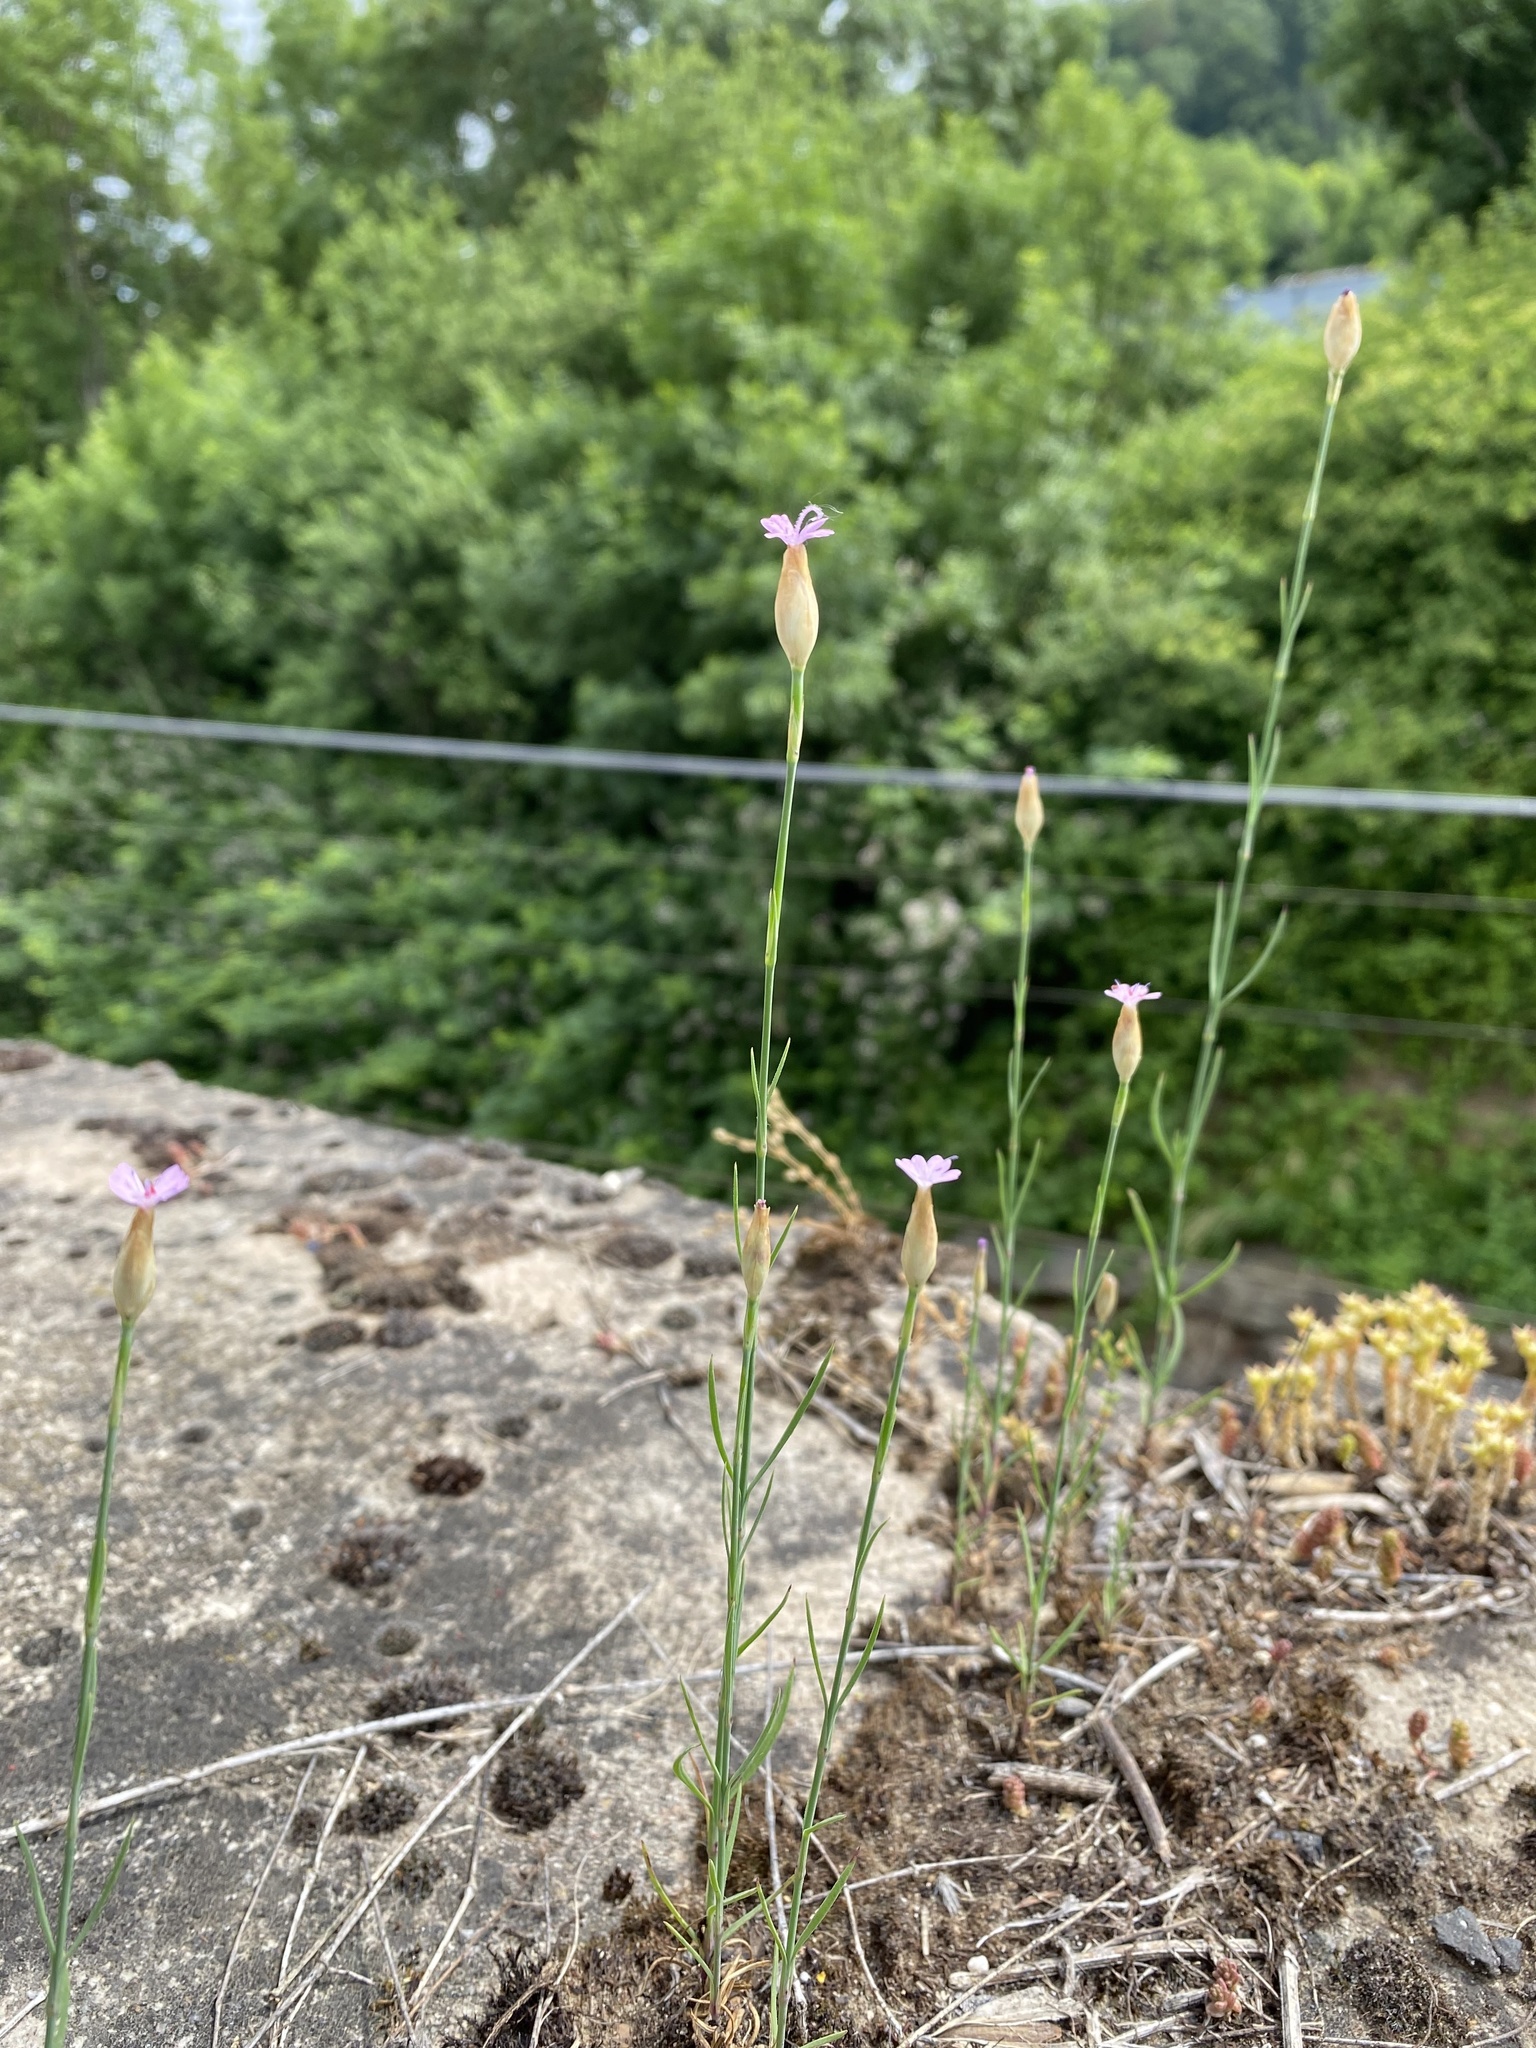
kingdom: Plantae
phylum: Tracheophyta
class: Magnoliopsida
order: Caryophyllales
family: Caryophyllaceae
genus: Petrorhagia
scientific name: Petrorhagia prolifera
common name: Proliferous pink
